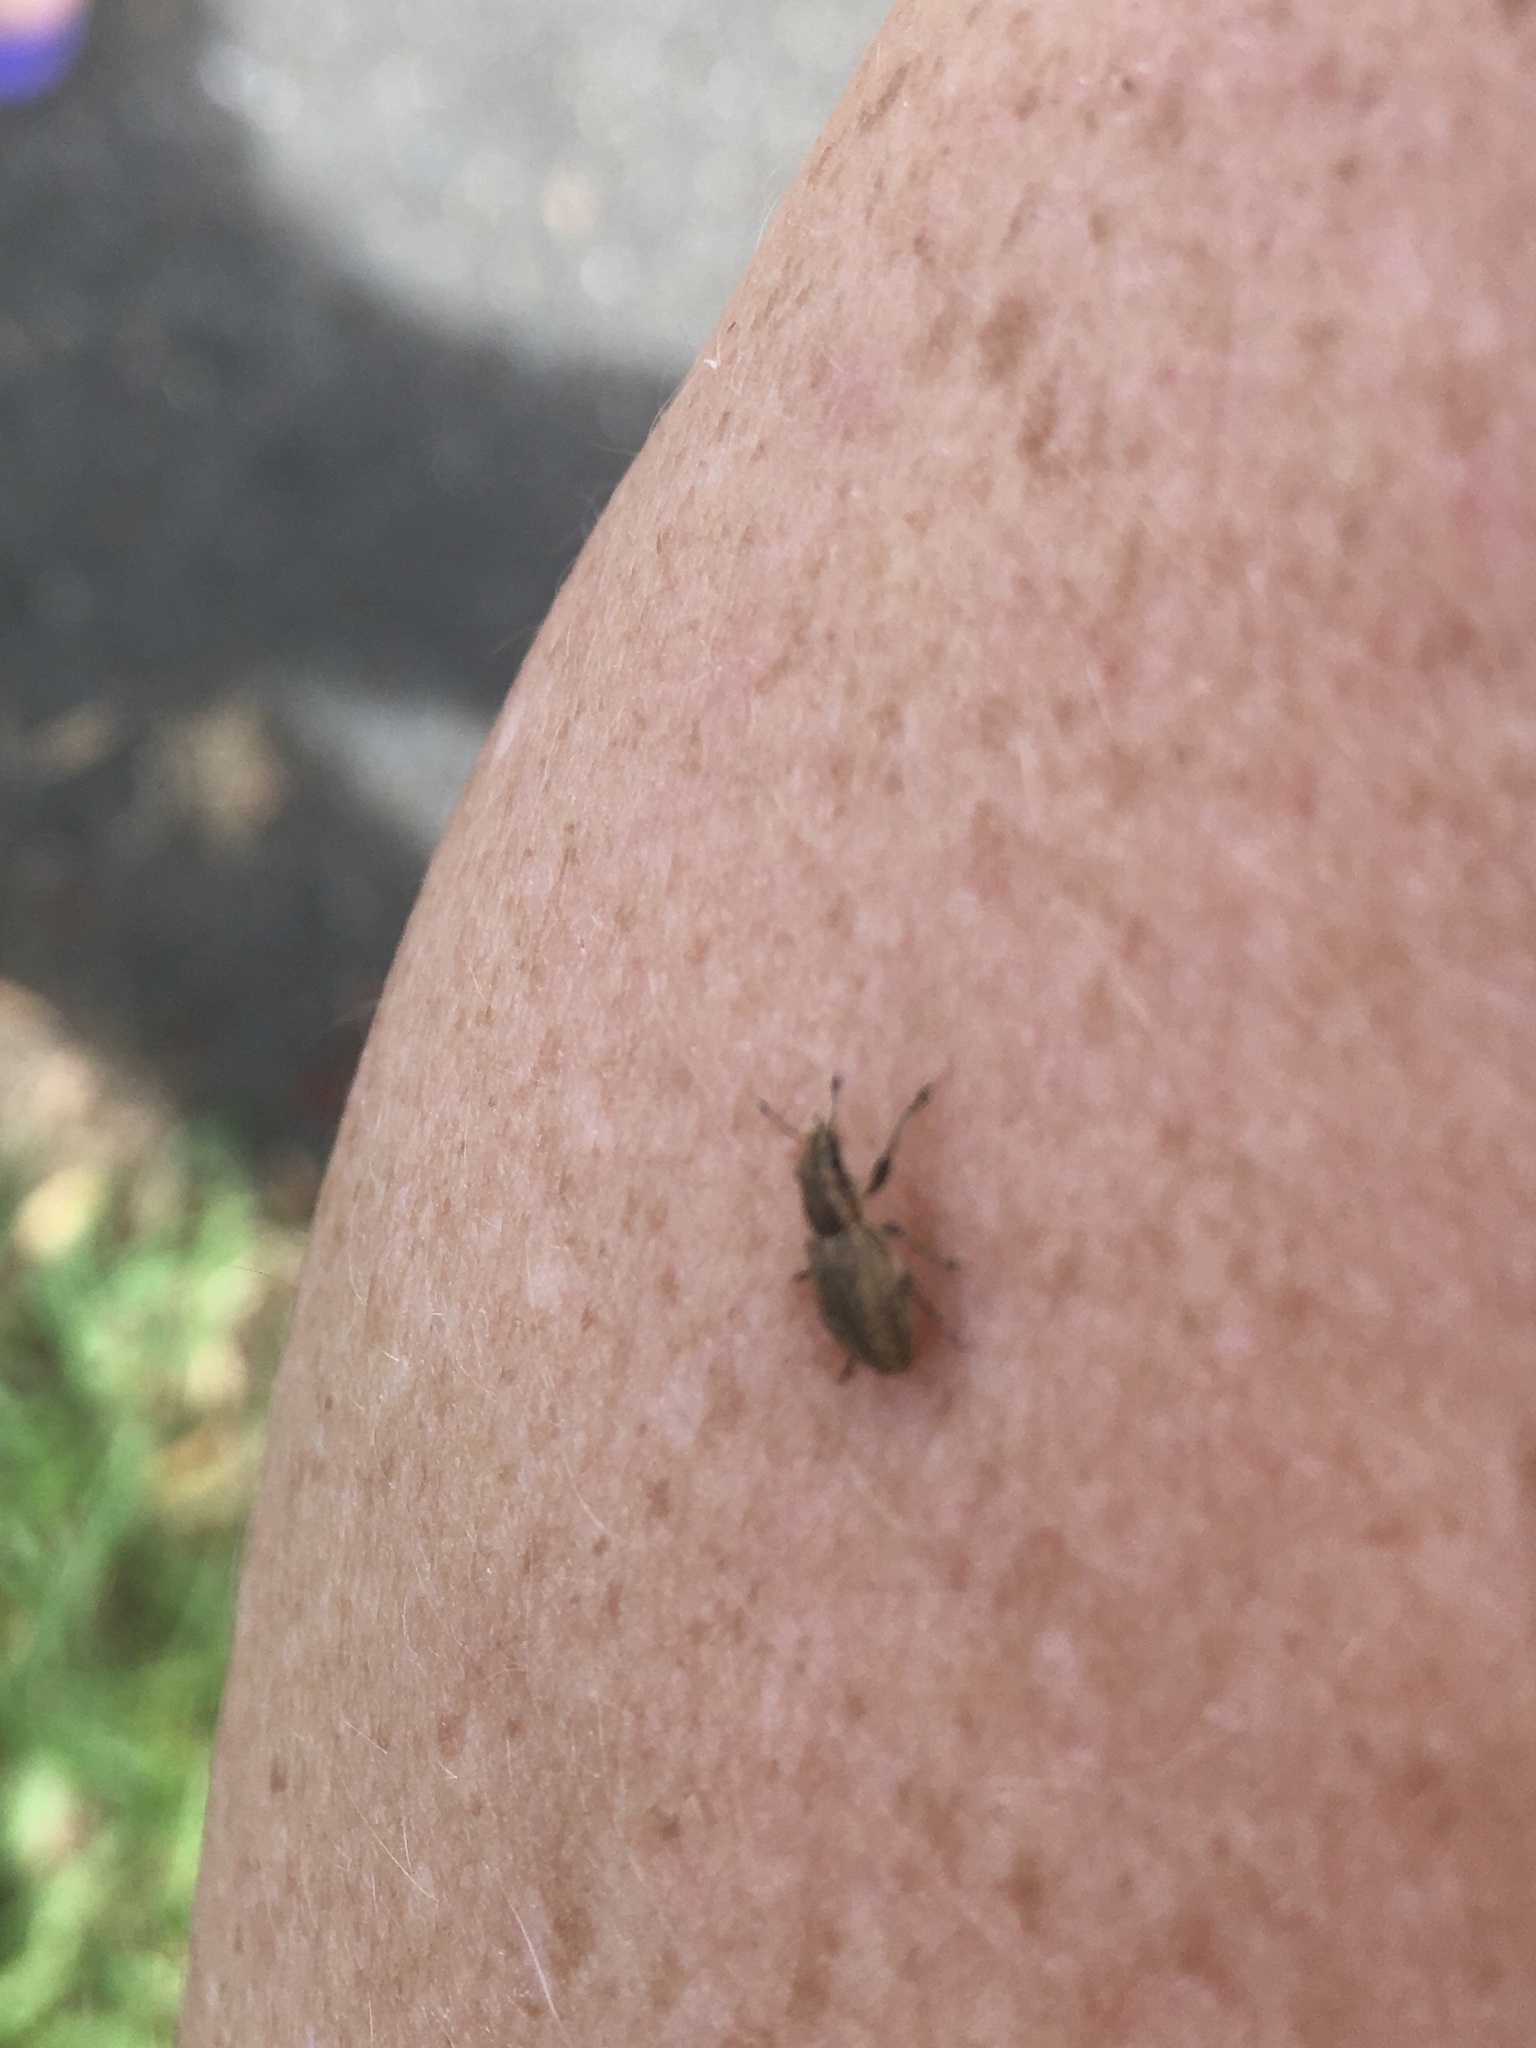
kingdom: Animalia
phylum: Arthropoda
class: Insecta
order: Coleoptera
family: Curculionidae
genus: Sitona
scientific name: Sitona obsoletus
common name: Weevil
